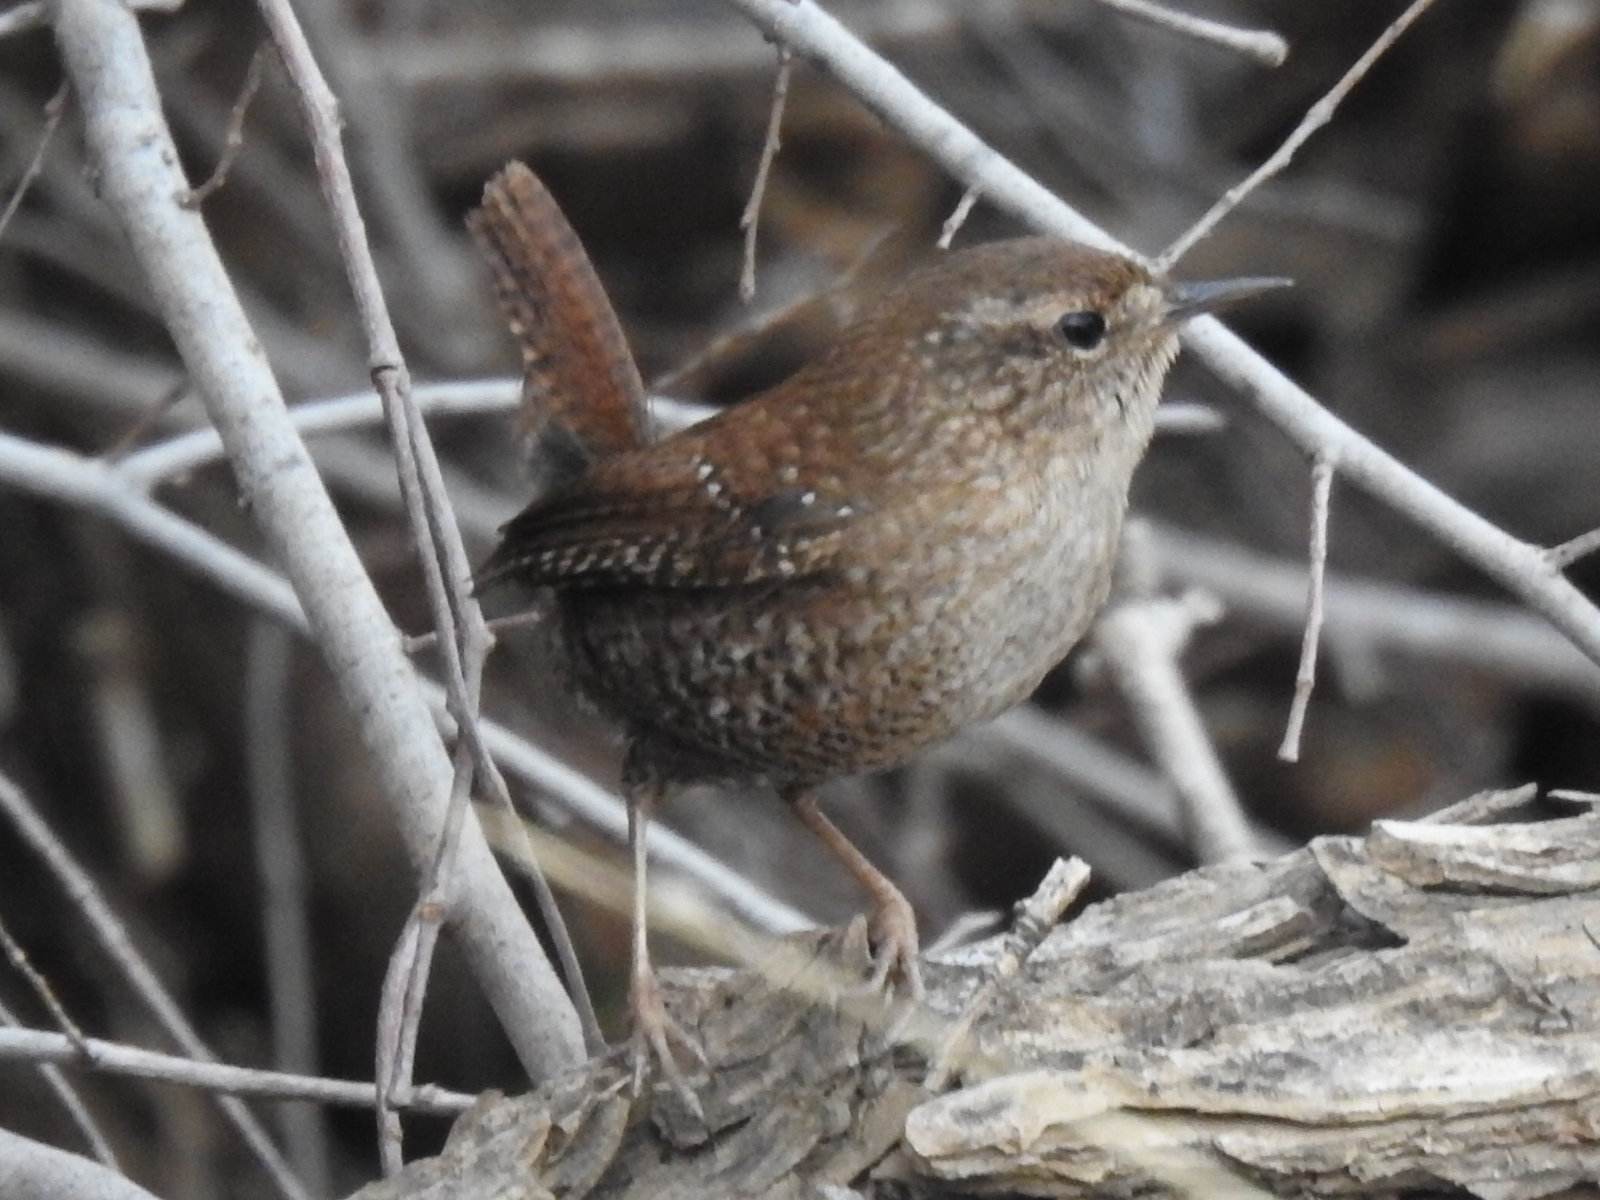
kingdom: Animalia
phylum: Chordata
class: Aves
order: Passeriformes
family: Troglodytidae
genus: Troglodytes
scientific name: Troglodytes hiemalis
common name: Winter wren
